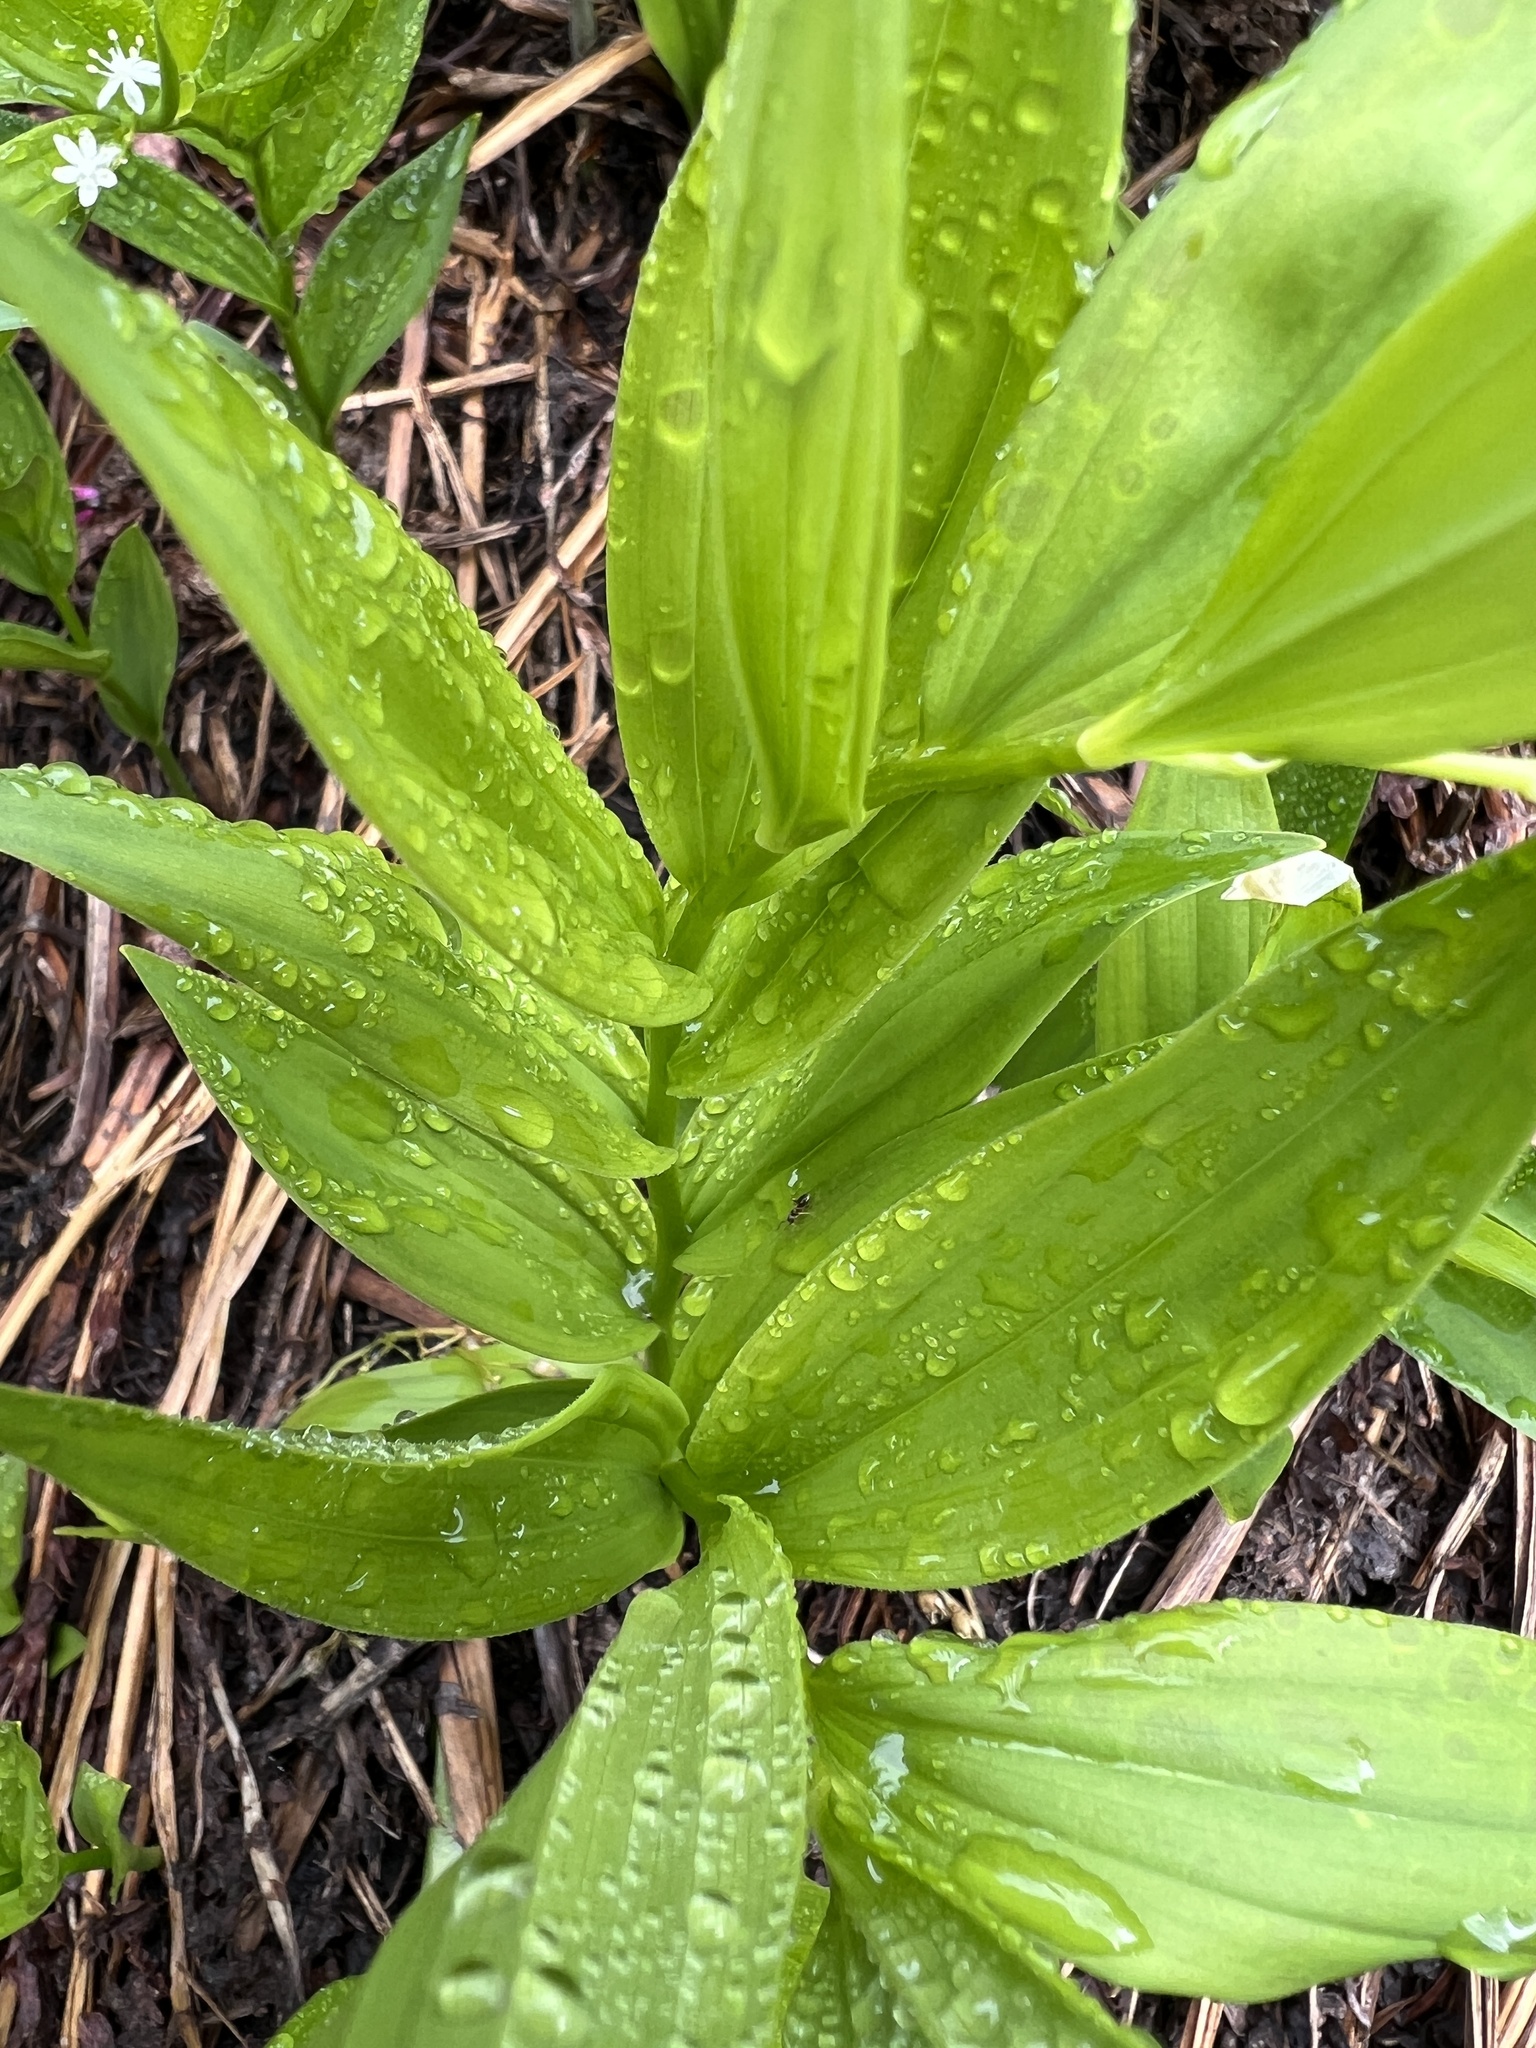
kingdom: Plantae
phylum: Tracheophyta
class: Liliopsida
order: Asparagales
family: Asparagaceae
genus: Maianthemum
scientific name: Maianthemum stellatum
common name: Little false solomon's seal
